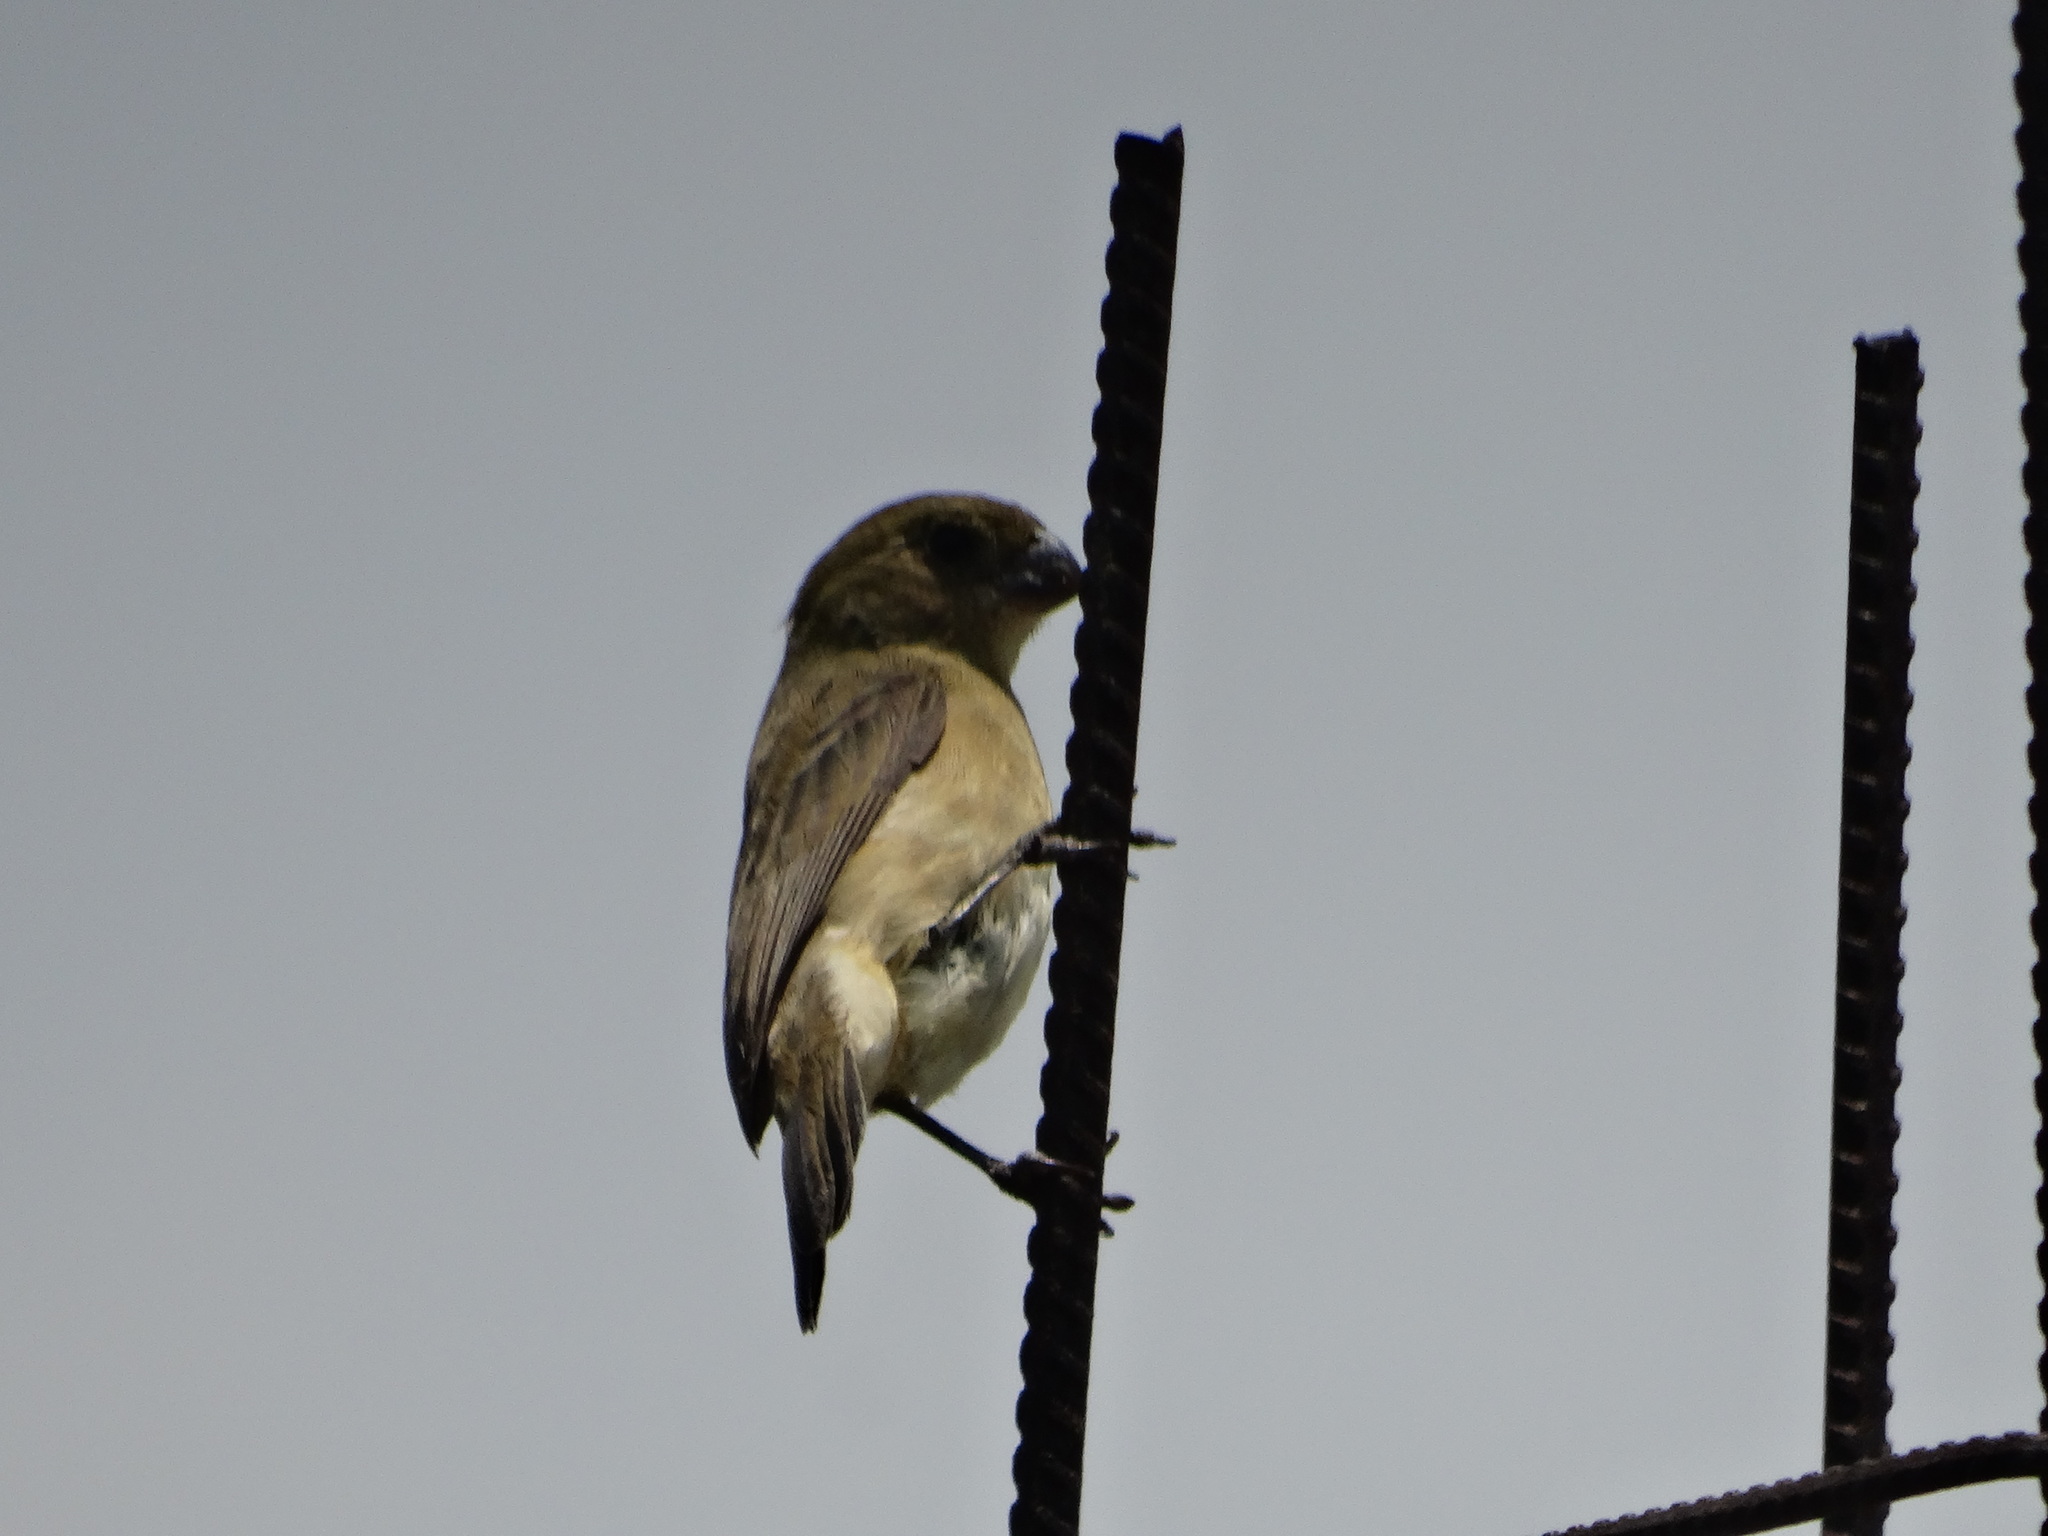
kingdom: Animalia
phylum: Chordata
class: Aves
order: Passeriformes
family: Thraupidae
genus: Sporophila
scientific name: Sporophila torqueola
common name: White-collared seedeater
